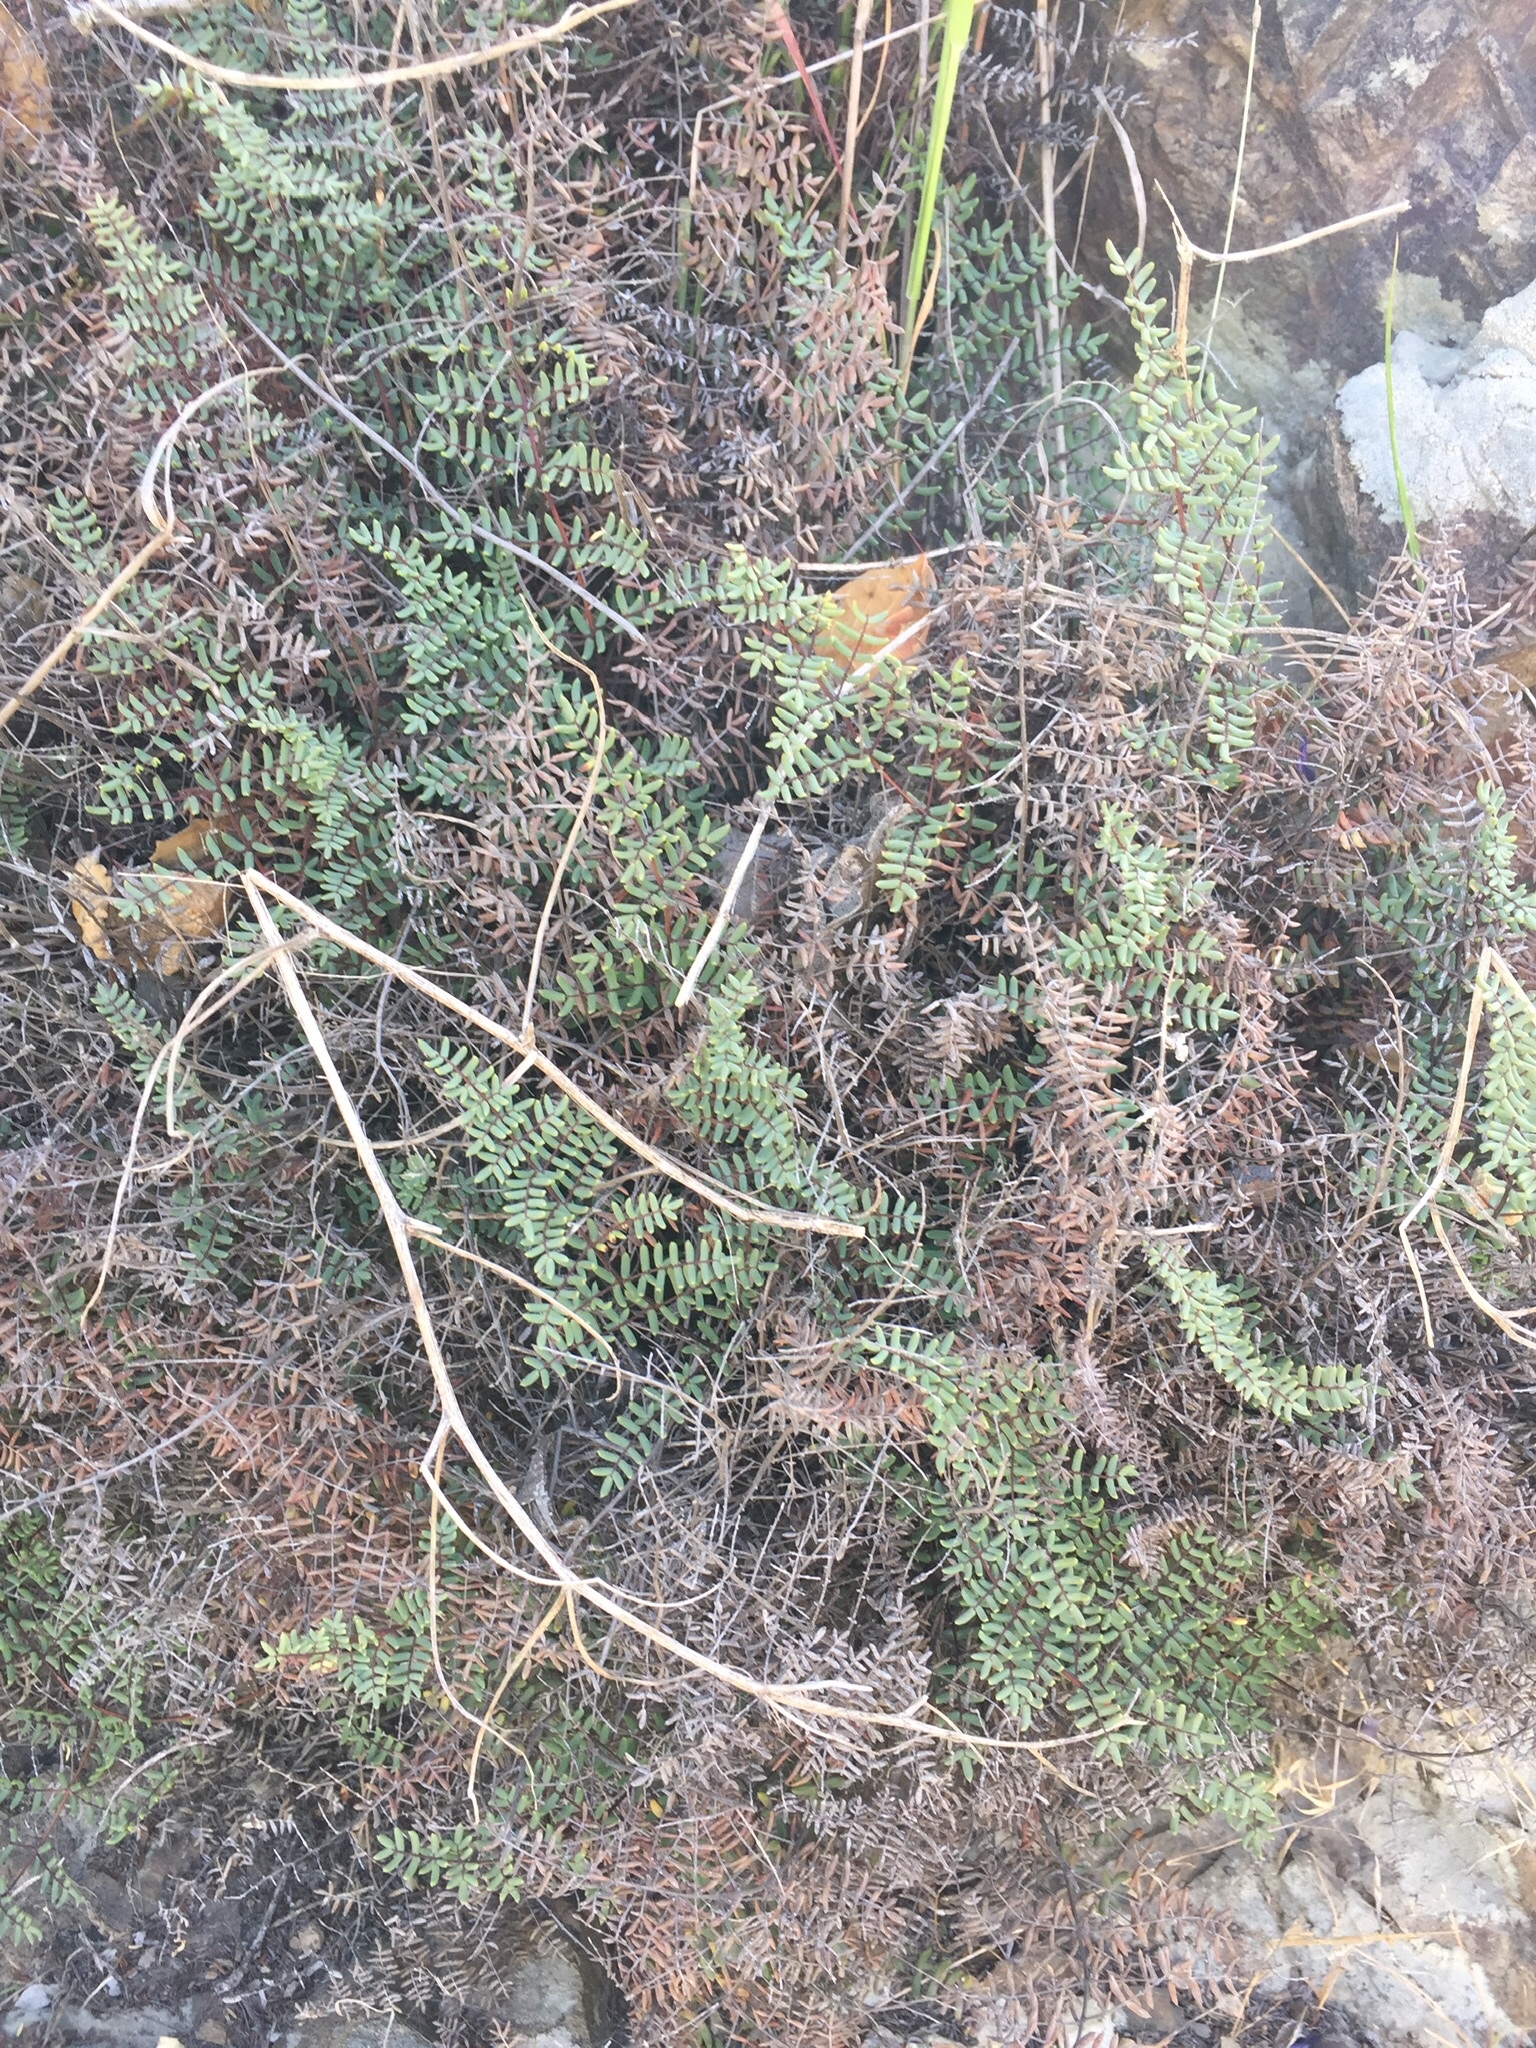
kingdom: Plantae
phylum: Tracheophyta
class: Polypodiopsida
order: Polypodiales
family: Pteridaceae
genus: Pellaea
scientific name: Pellaea mucronata
